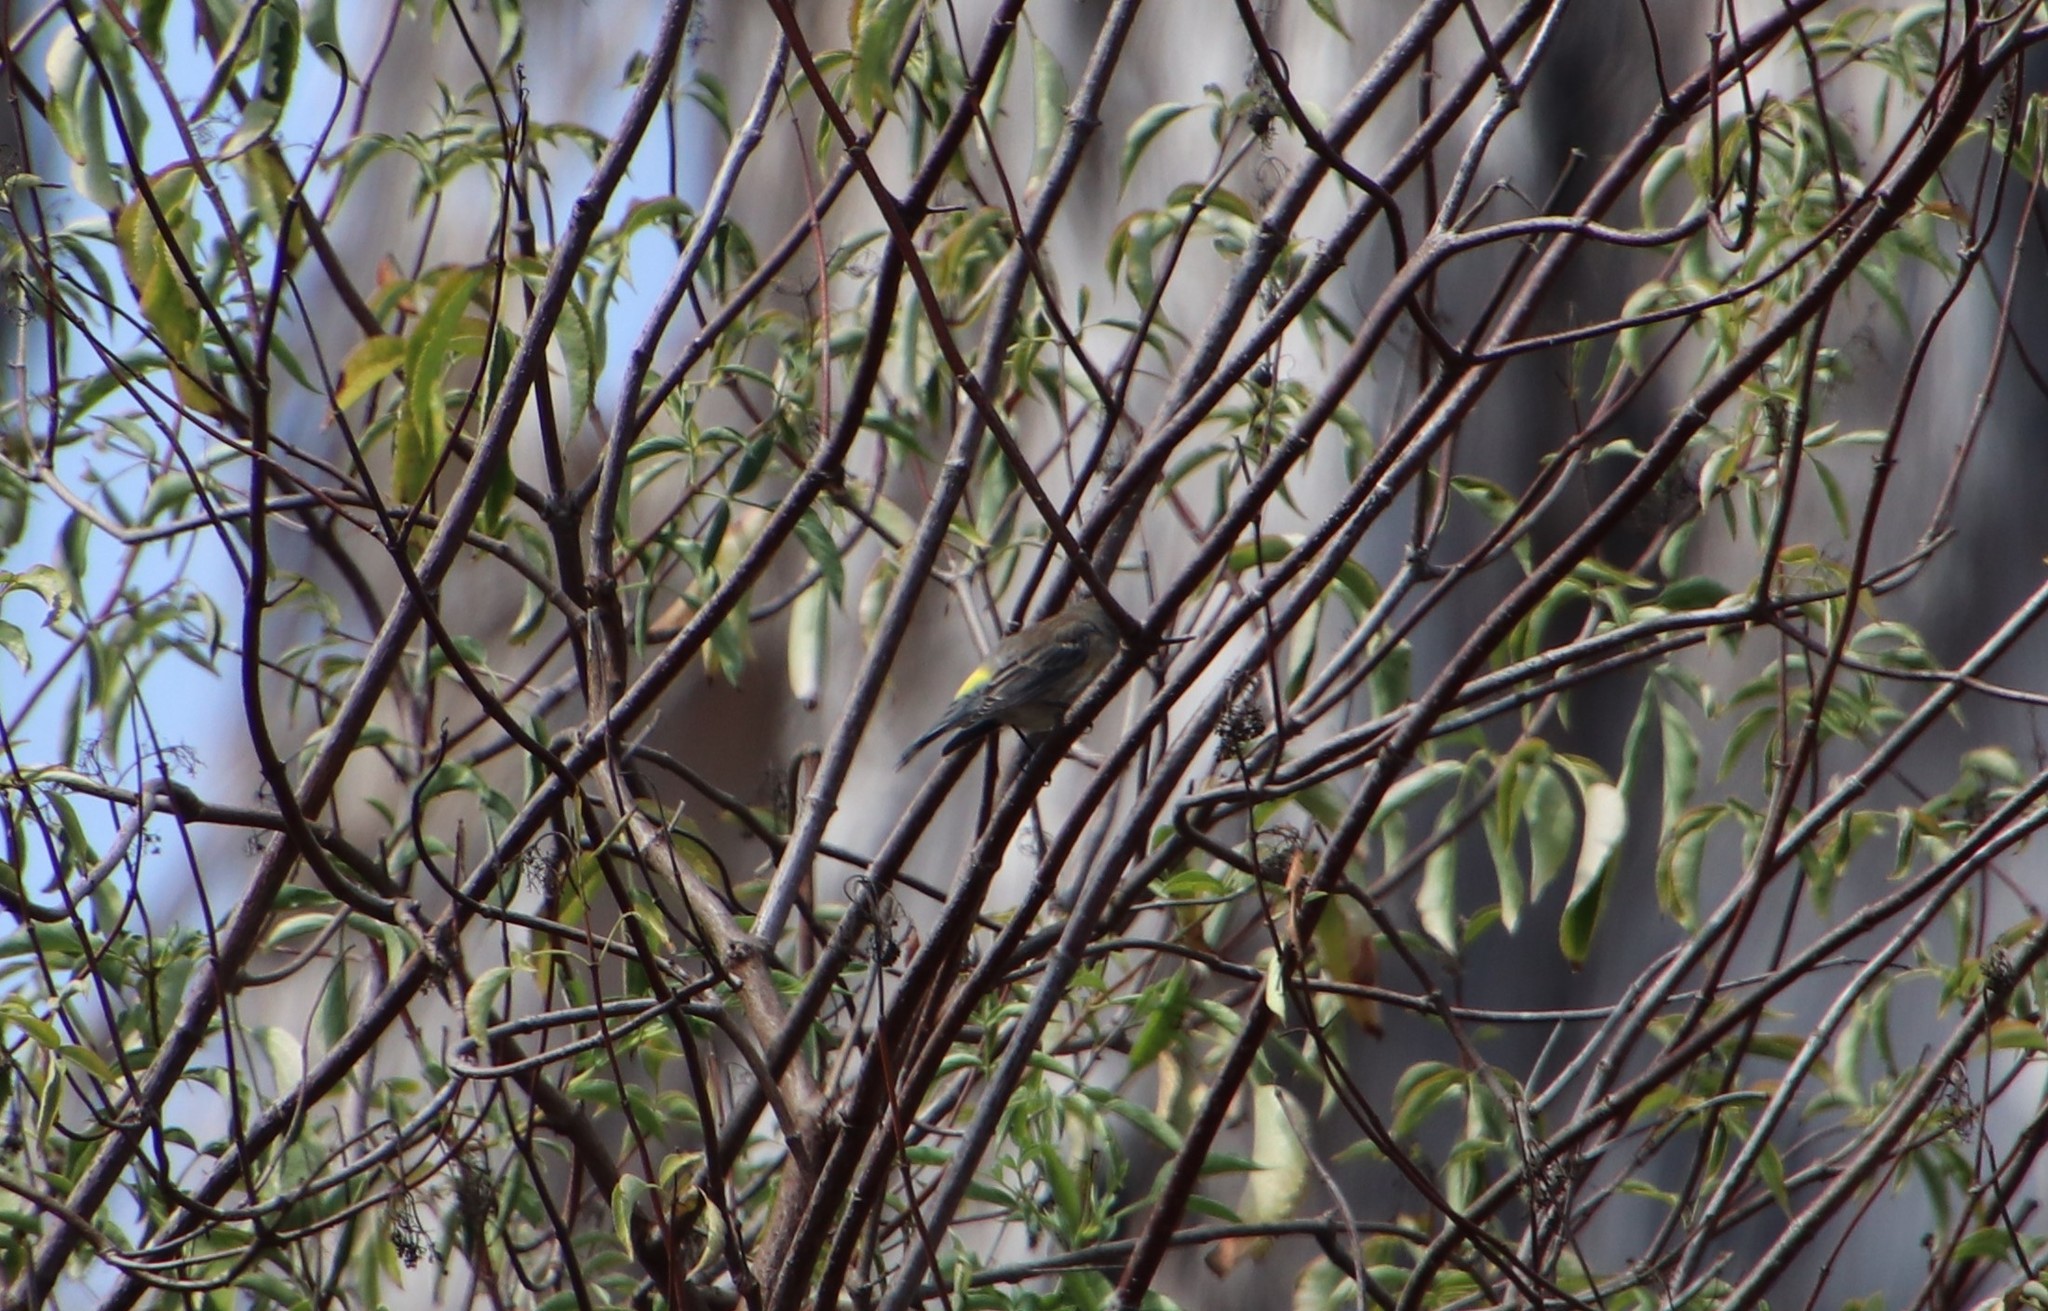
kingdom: Animalia
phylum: Chordata
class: Aves
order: Passeriformes
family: Parulidae
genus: Setophaga
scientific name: Setophaga coronata
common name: Myrtle warbler
